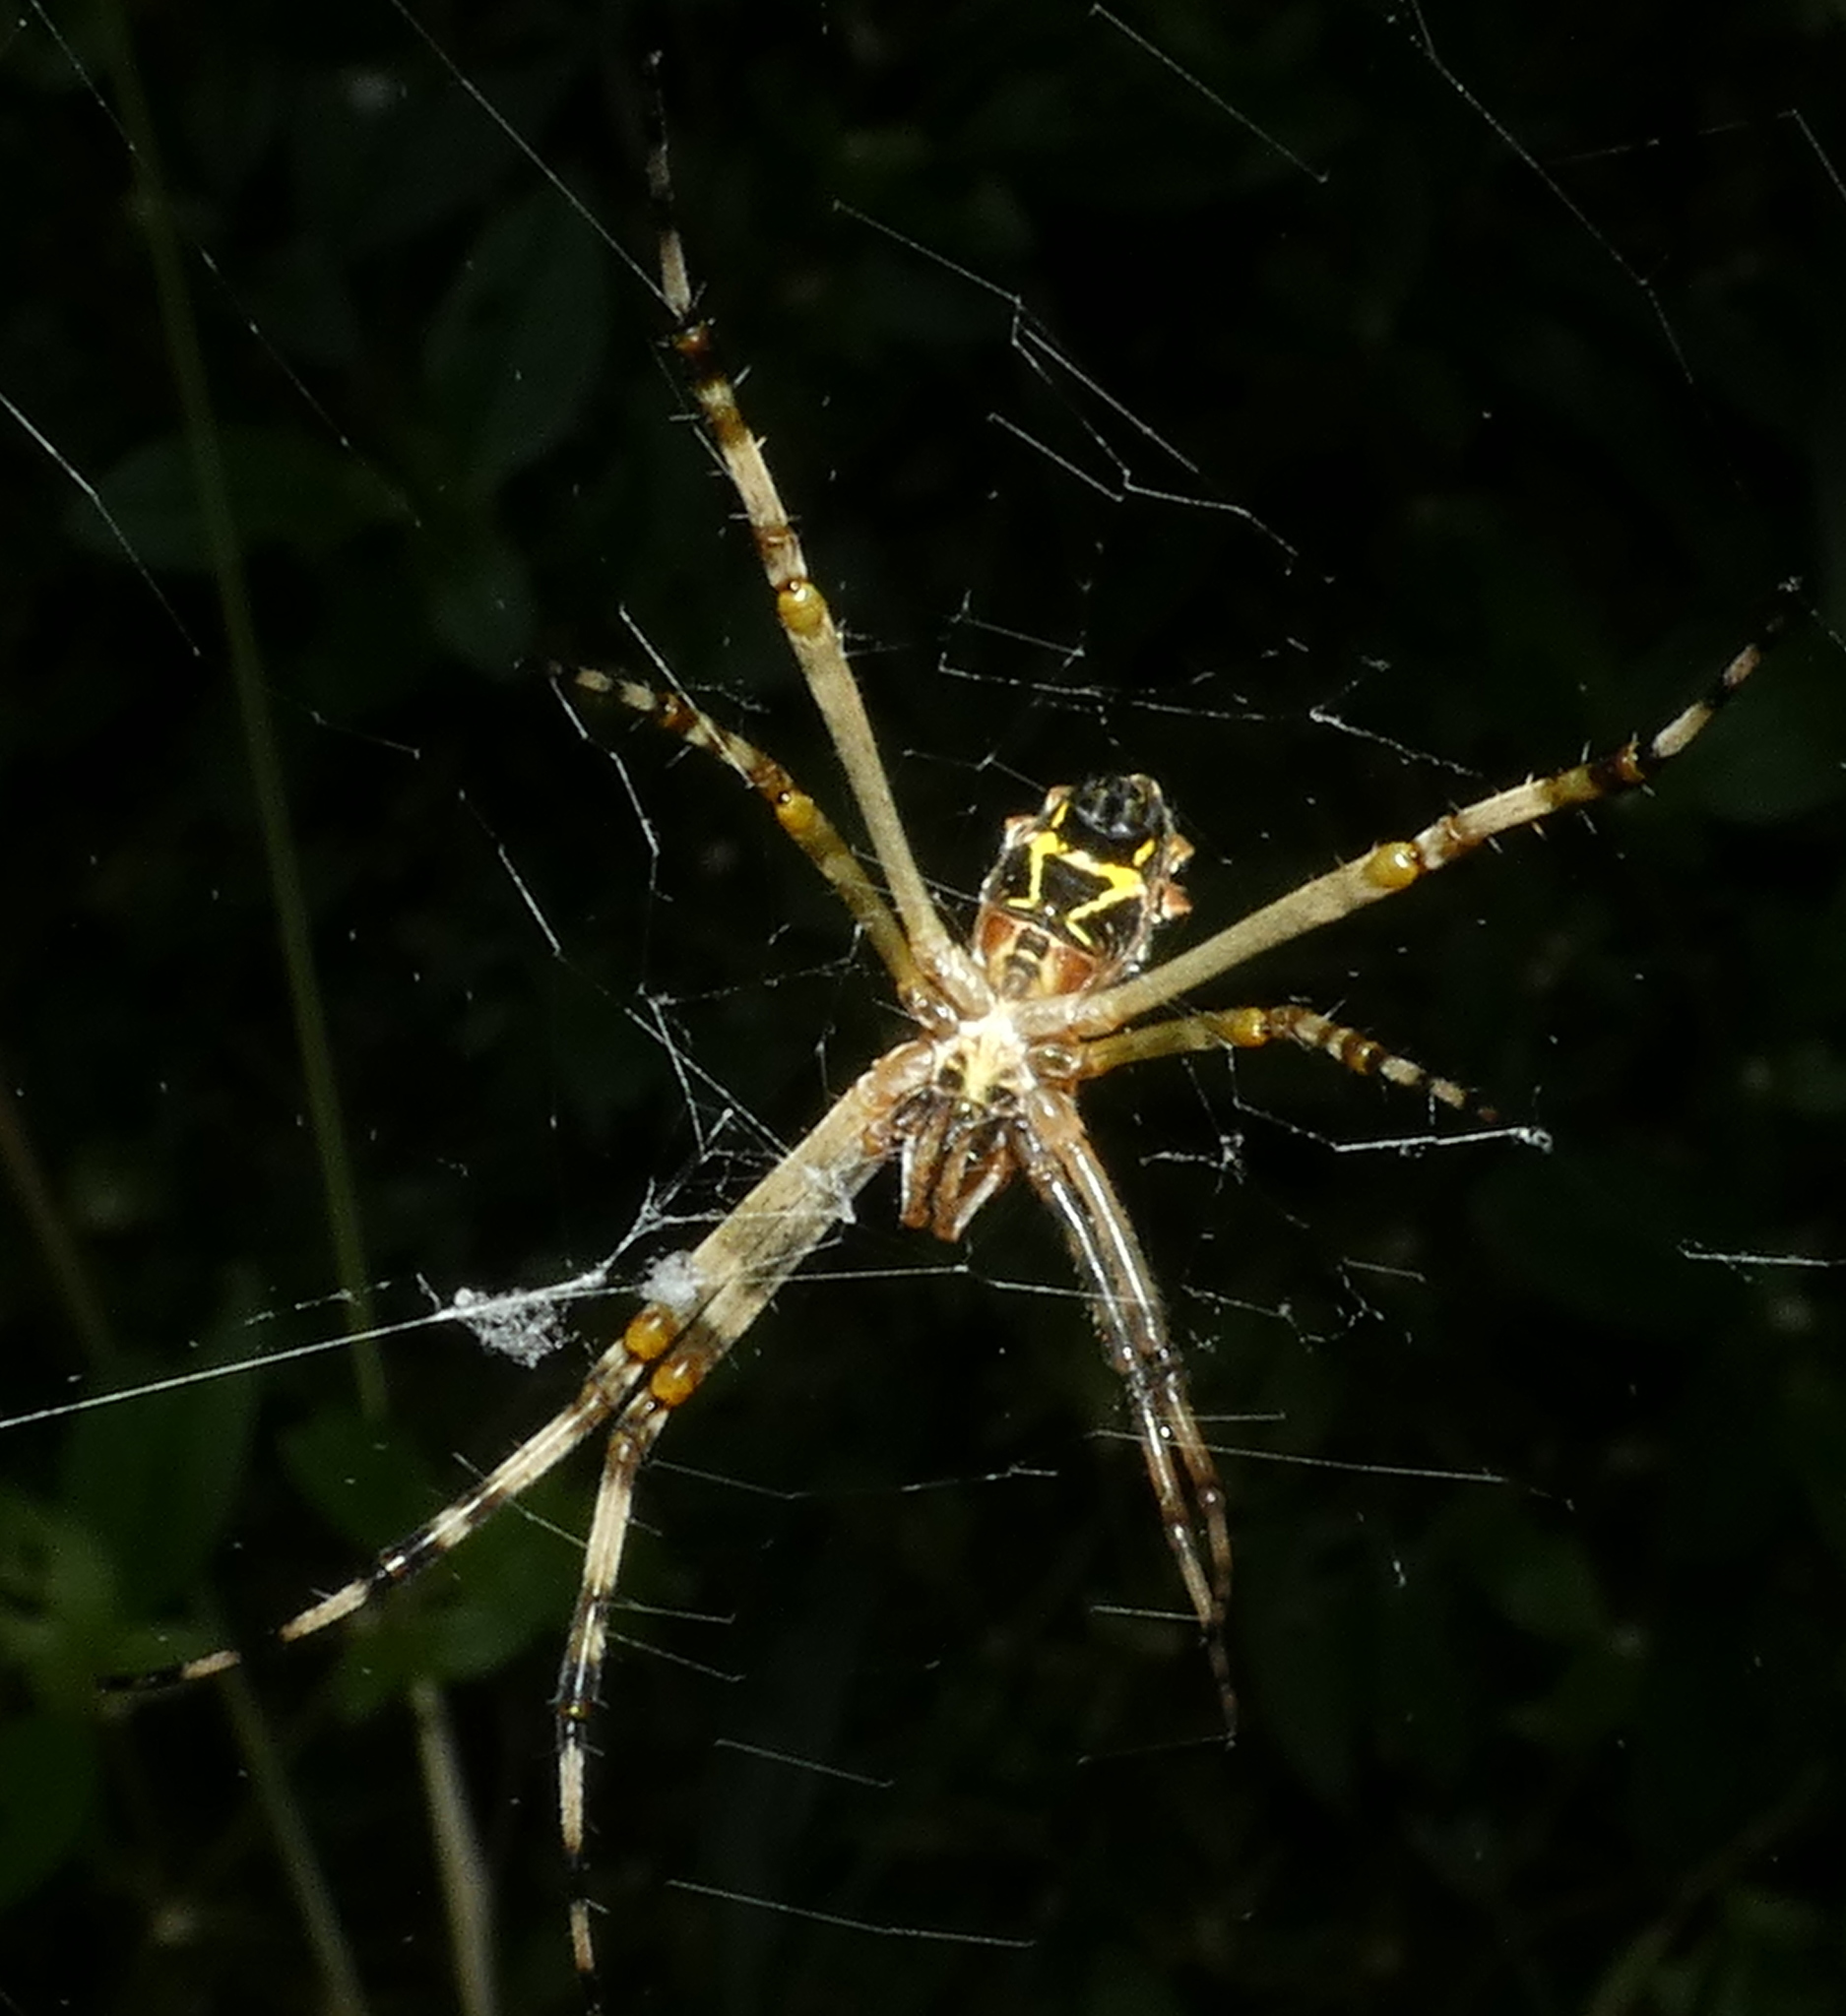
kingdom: Animalia
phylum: Arthropoda
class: Arachnida
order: Araneae
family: Araneidae
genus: Argiope
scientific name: Argiope argentata
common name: Orb weavers
